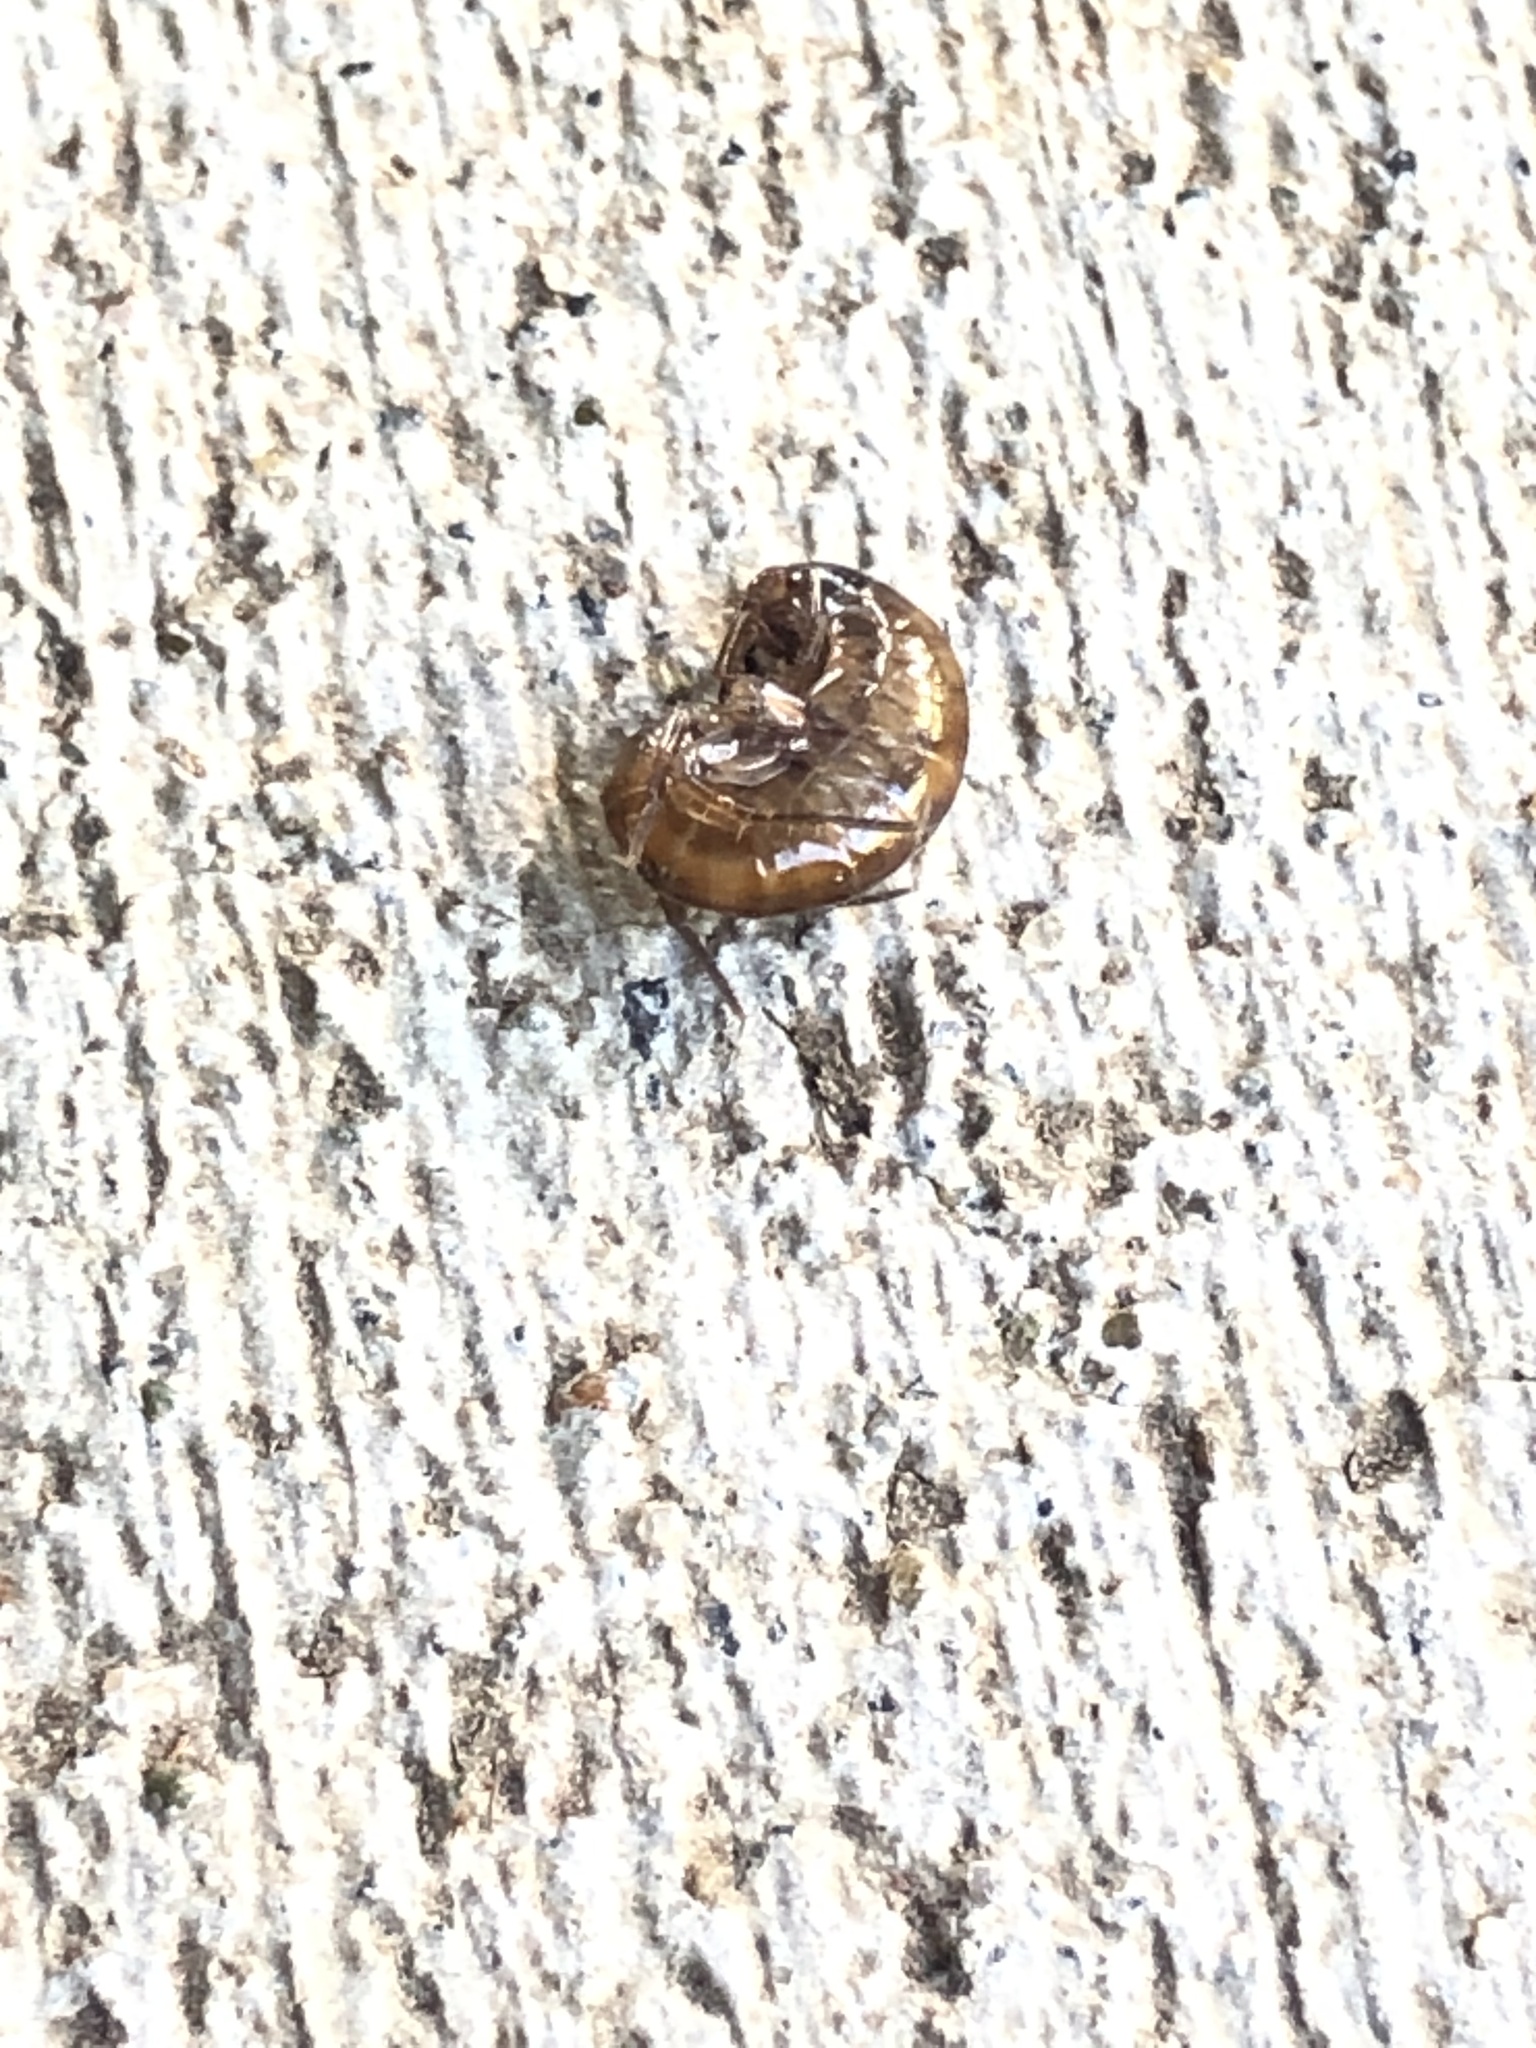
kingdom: Animalia
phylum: Arthropoda
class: Malacostraca
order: Amphipoda
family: Arcitalitridae
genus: Arcitalitrus
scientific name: Arcitalitrus sylvaticus
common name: Gammarid amphipod
